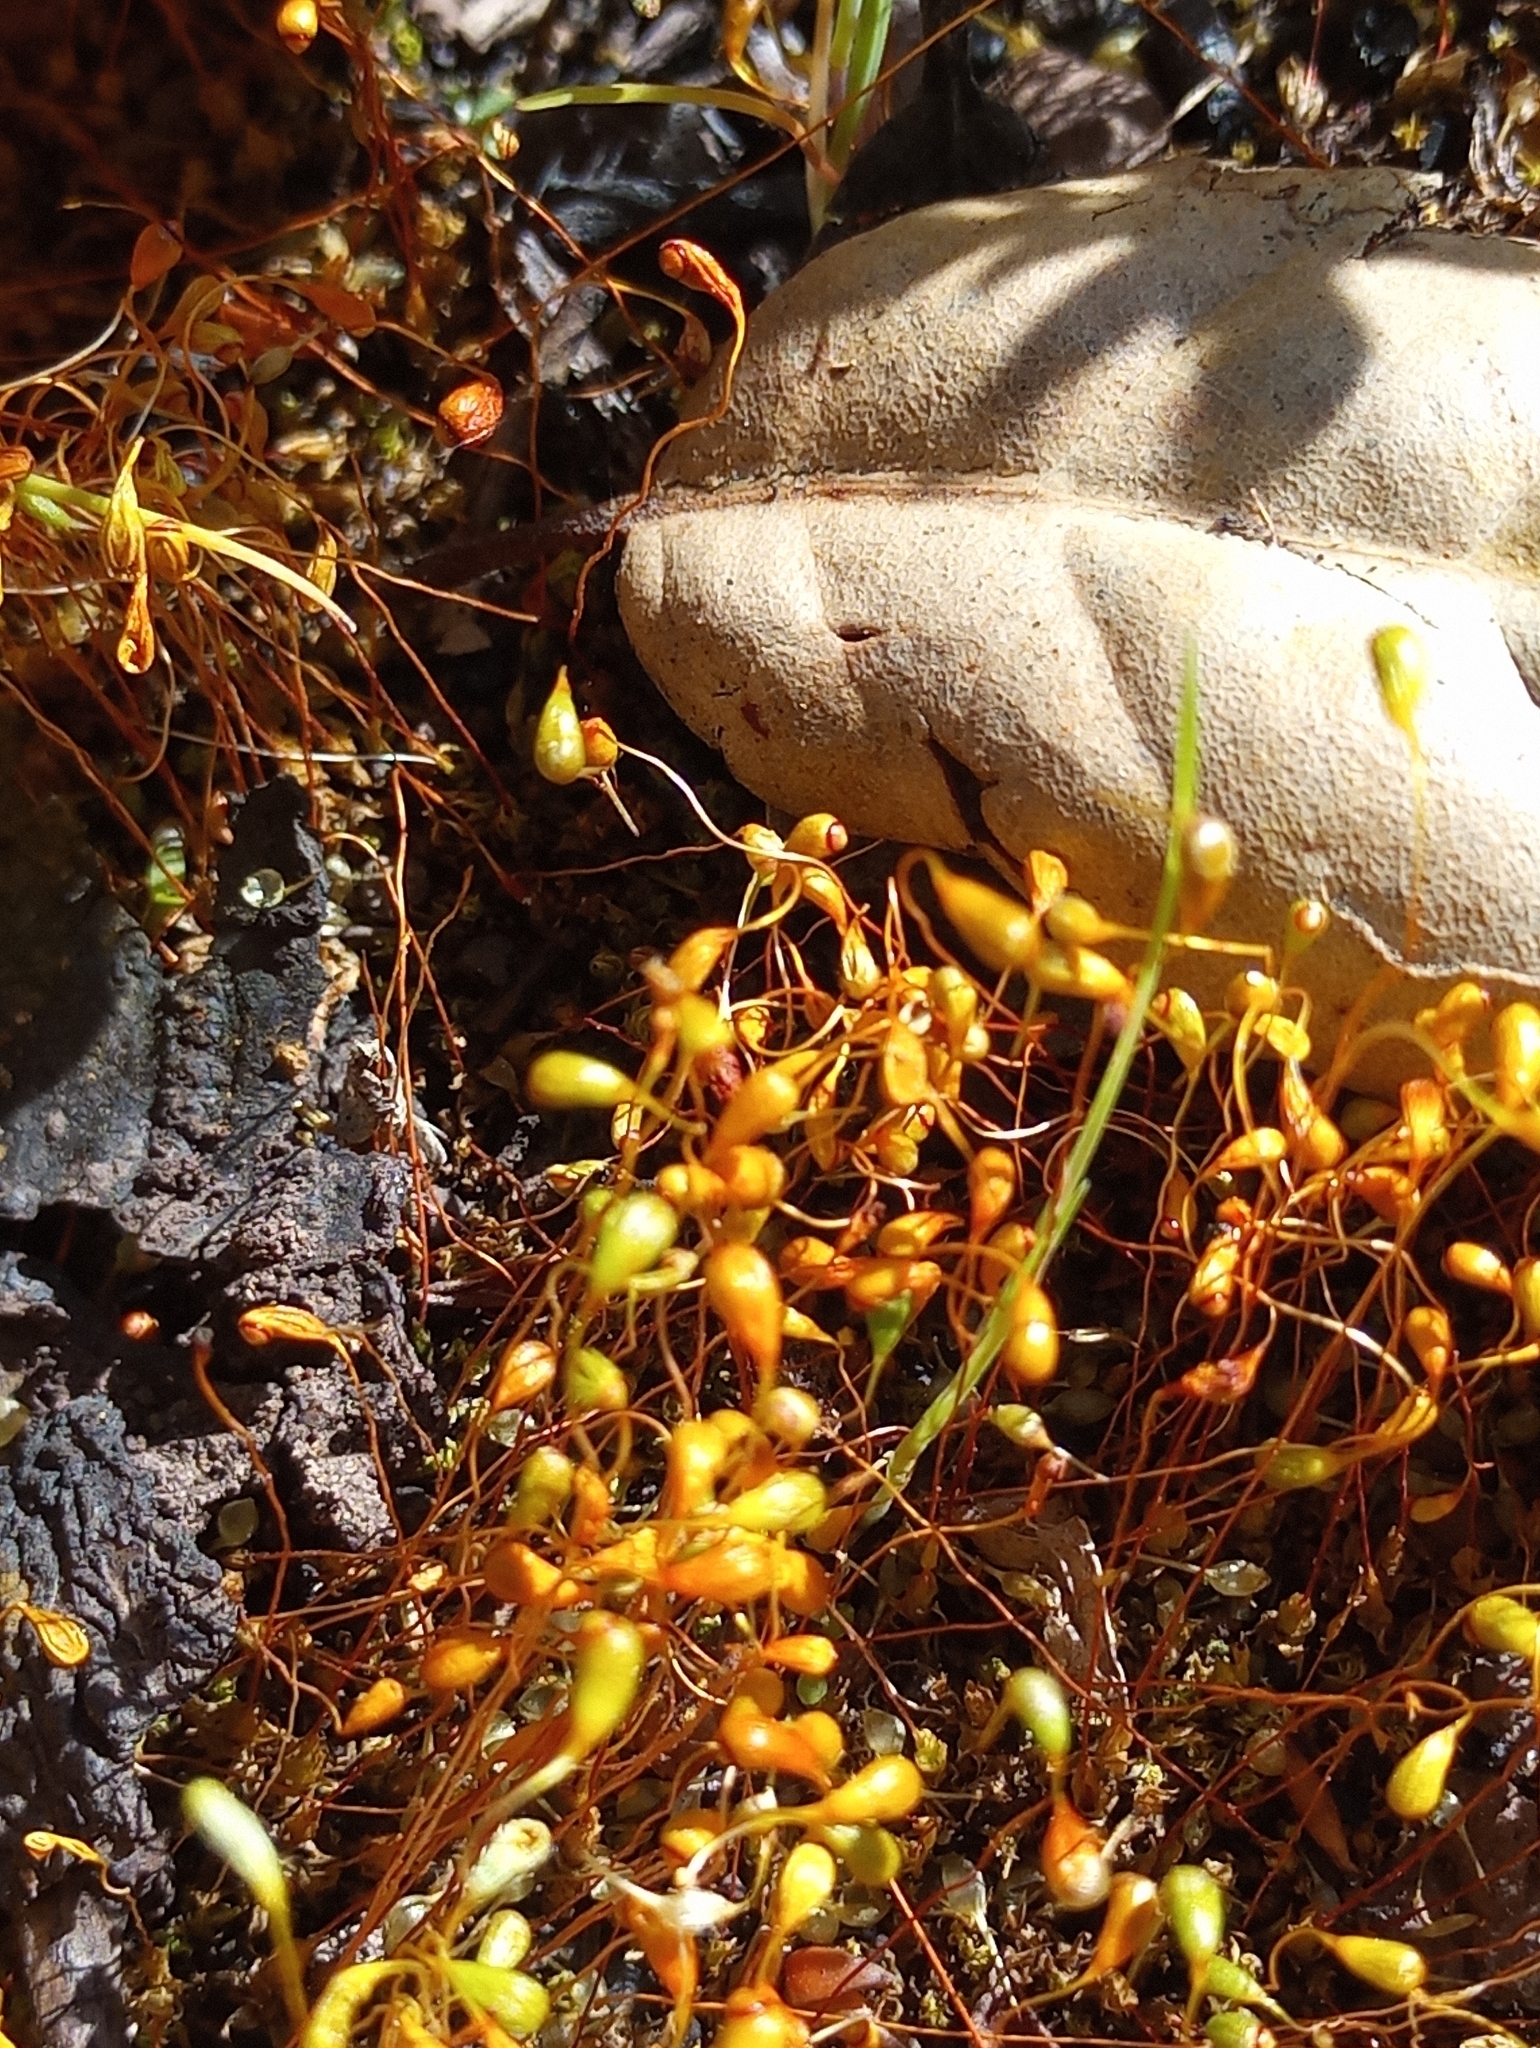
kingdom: Plantae
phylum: Bryophyta
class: Bryopsida
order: Funariales
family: Funariaceae
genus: Funaria
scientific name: Funaria hygrometrica
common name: Common cord moss
